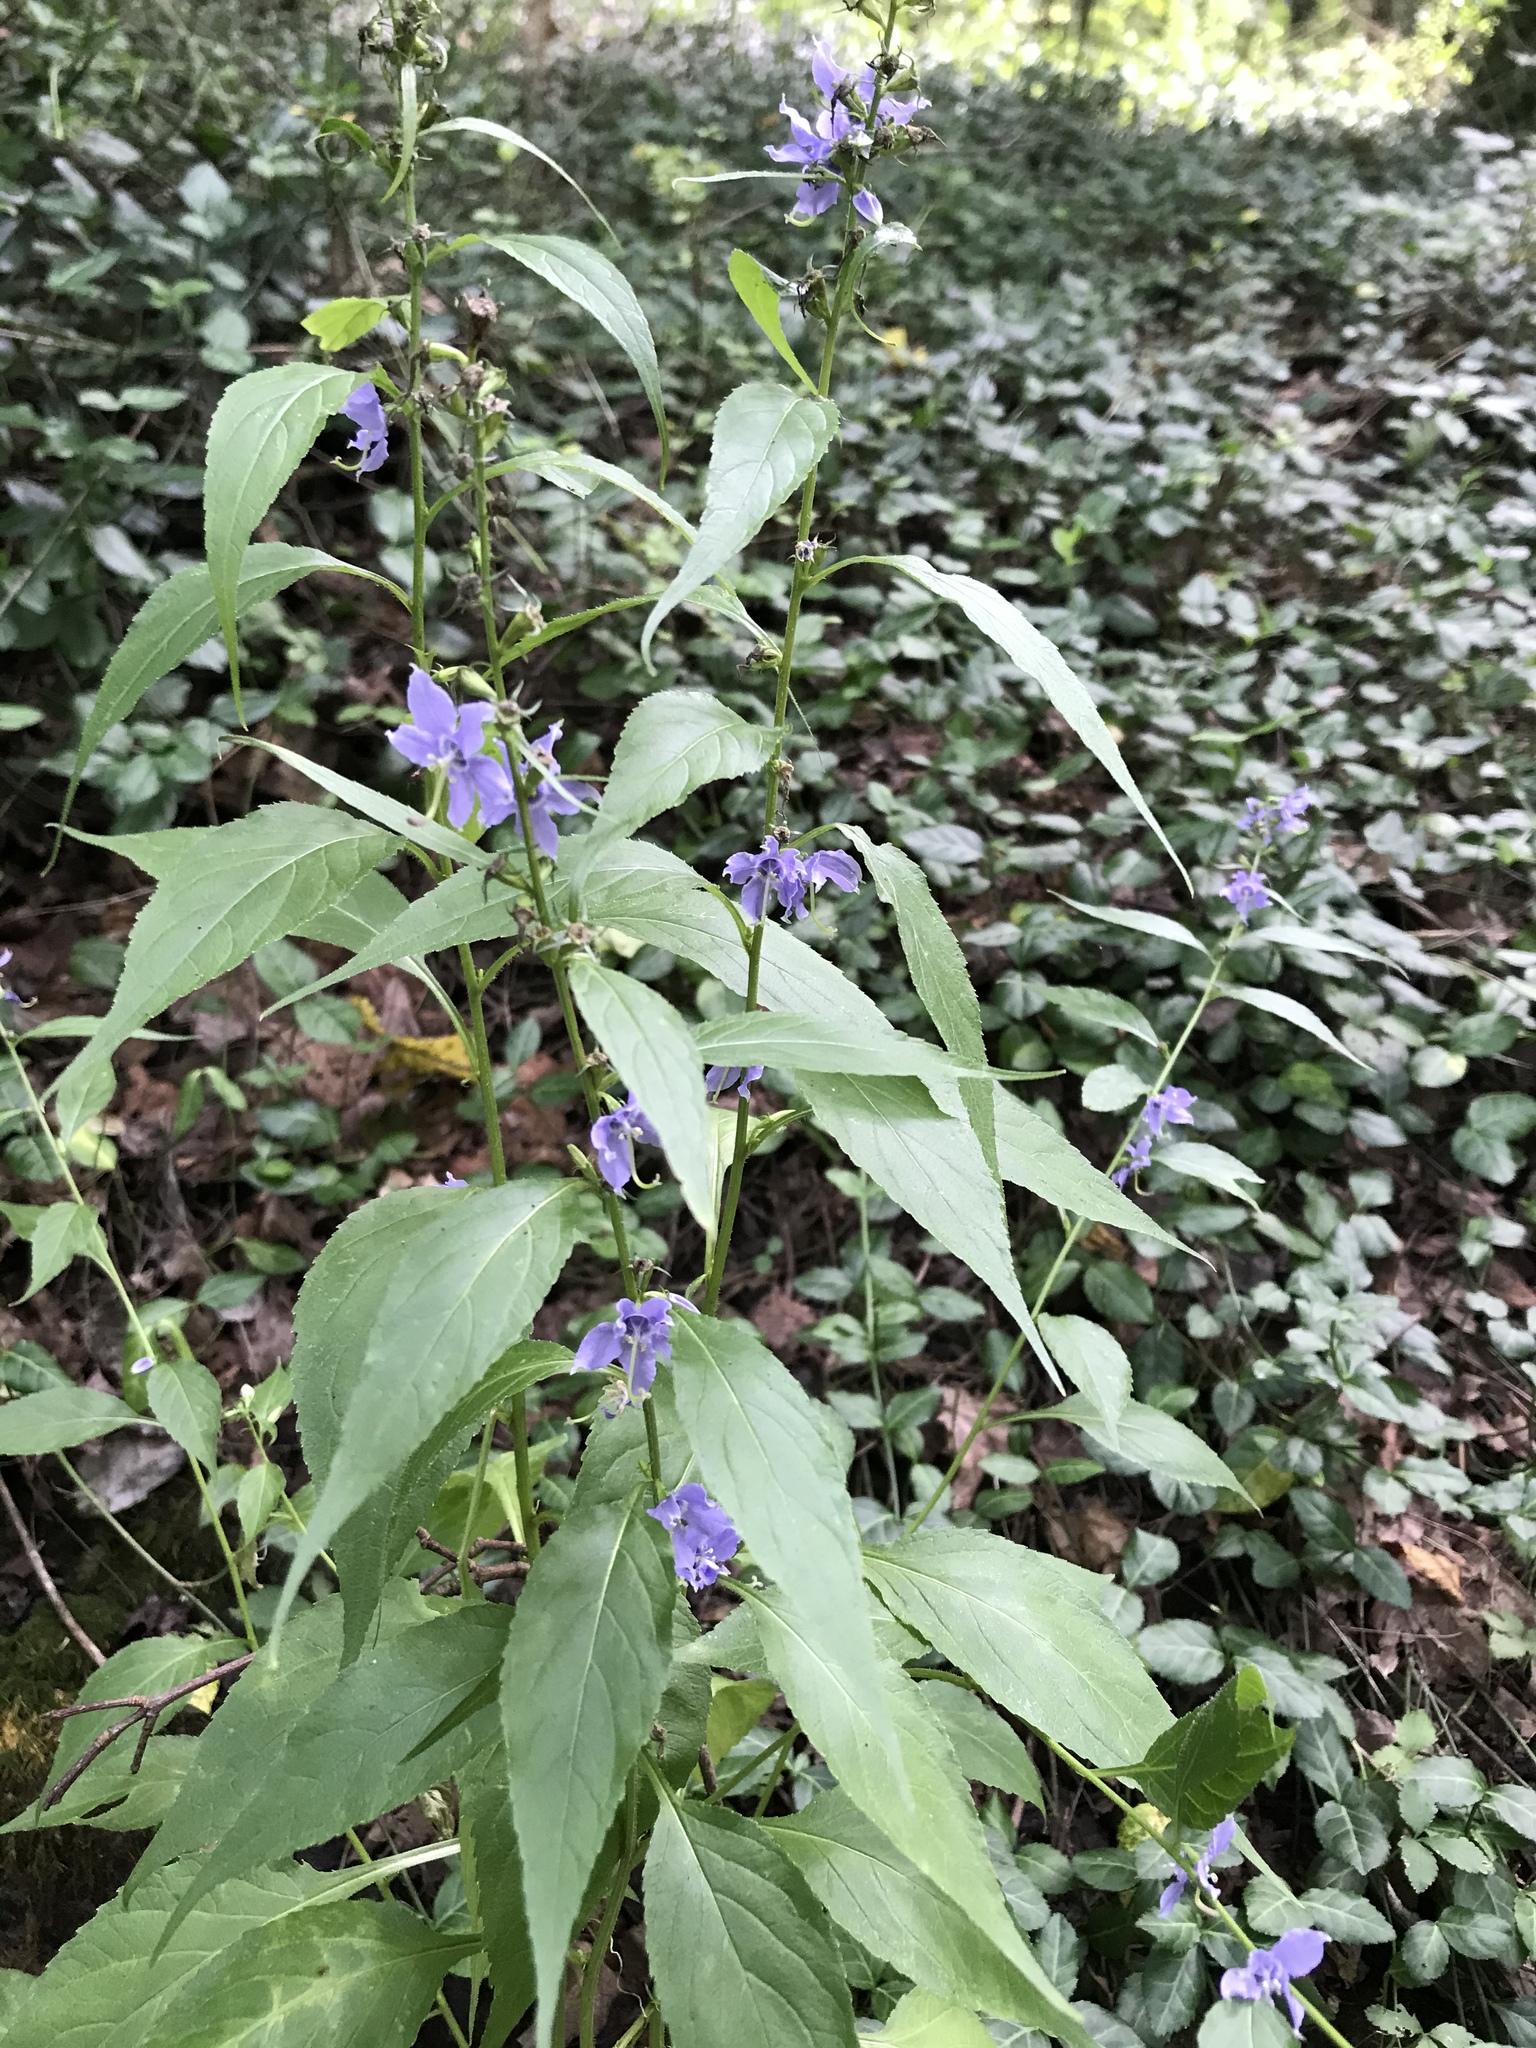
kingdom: Plantae
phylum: Tracheophyta
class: Magnoliopsida
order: Asterales
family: Campanulaceae
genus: Campanulastrum
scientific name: Campanulastrum americanum
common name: American bellflower
